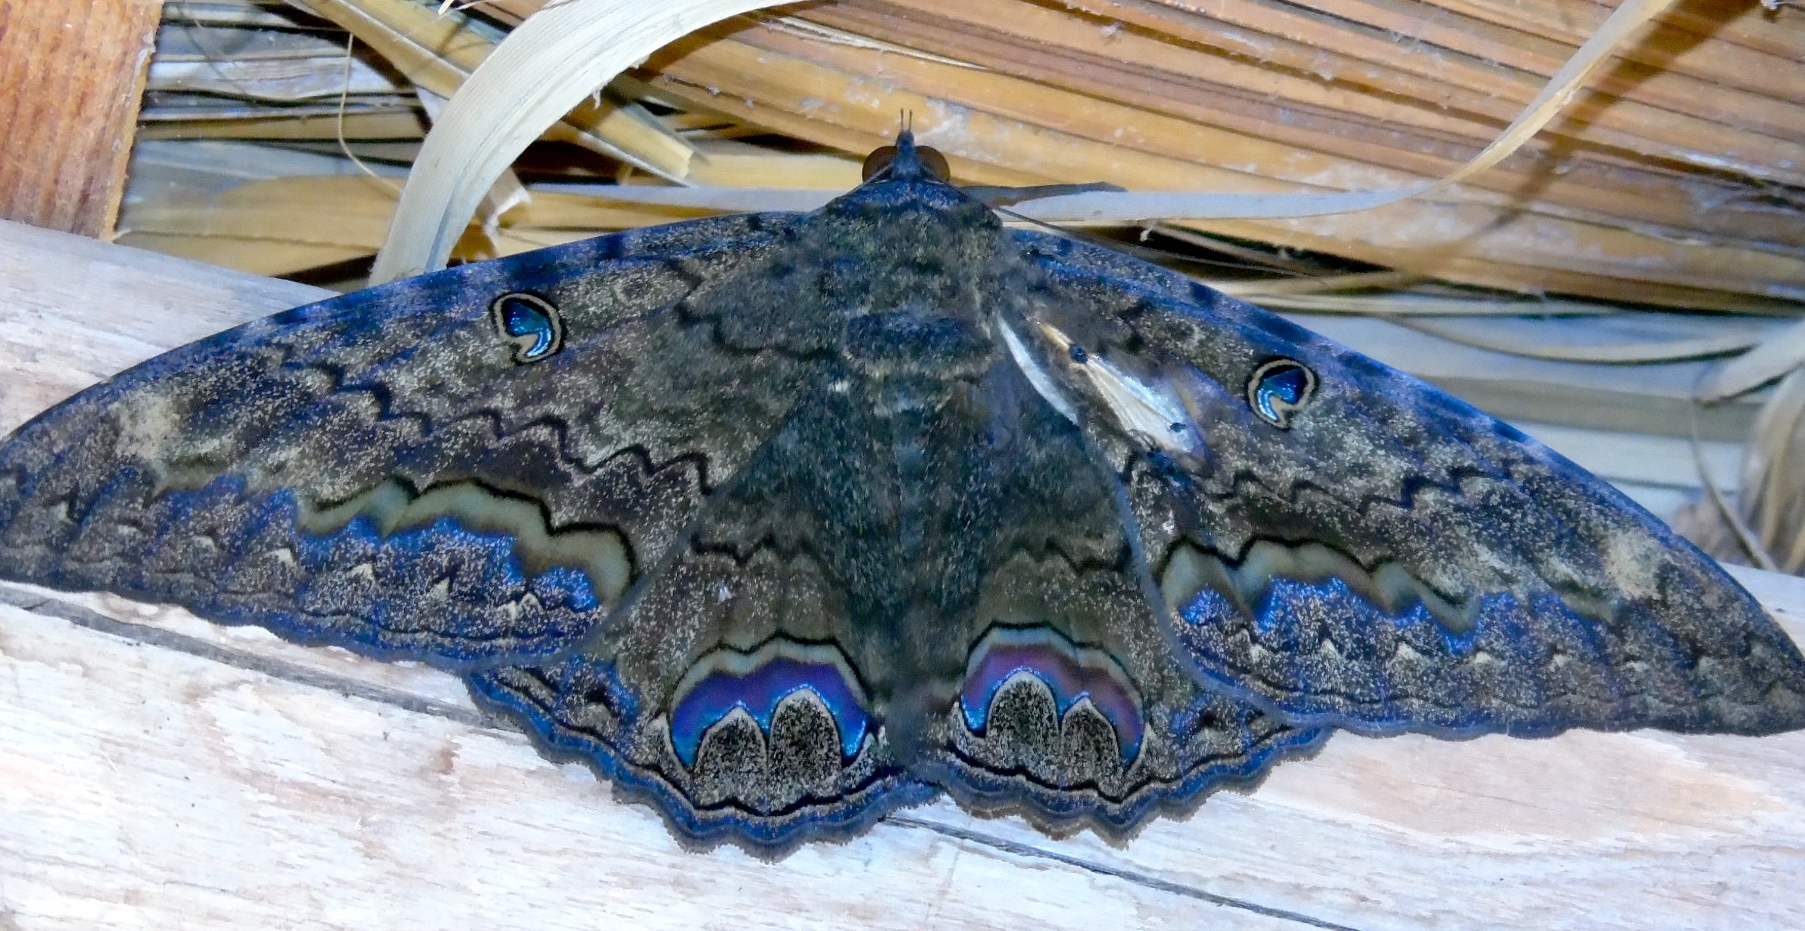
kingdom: Animalia
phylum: Arthropoda
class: Insecta
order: Lepidoptera
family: Erebidae
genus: Ascalapha
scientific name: Ascalapha odorata
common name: Black witch
